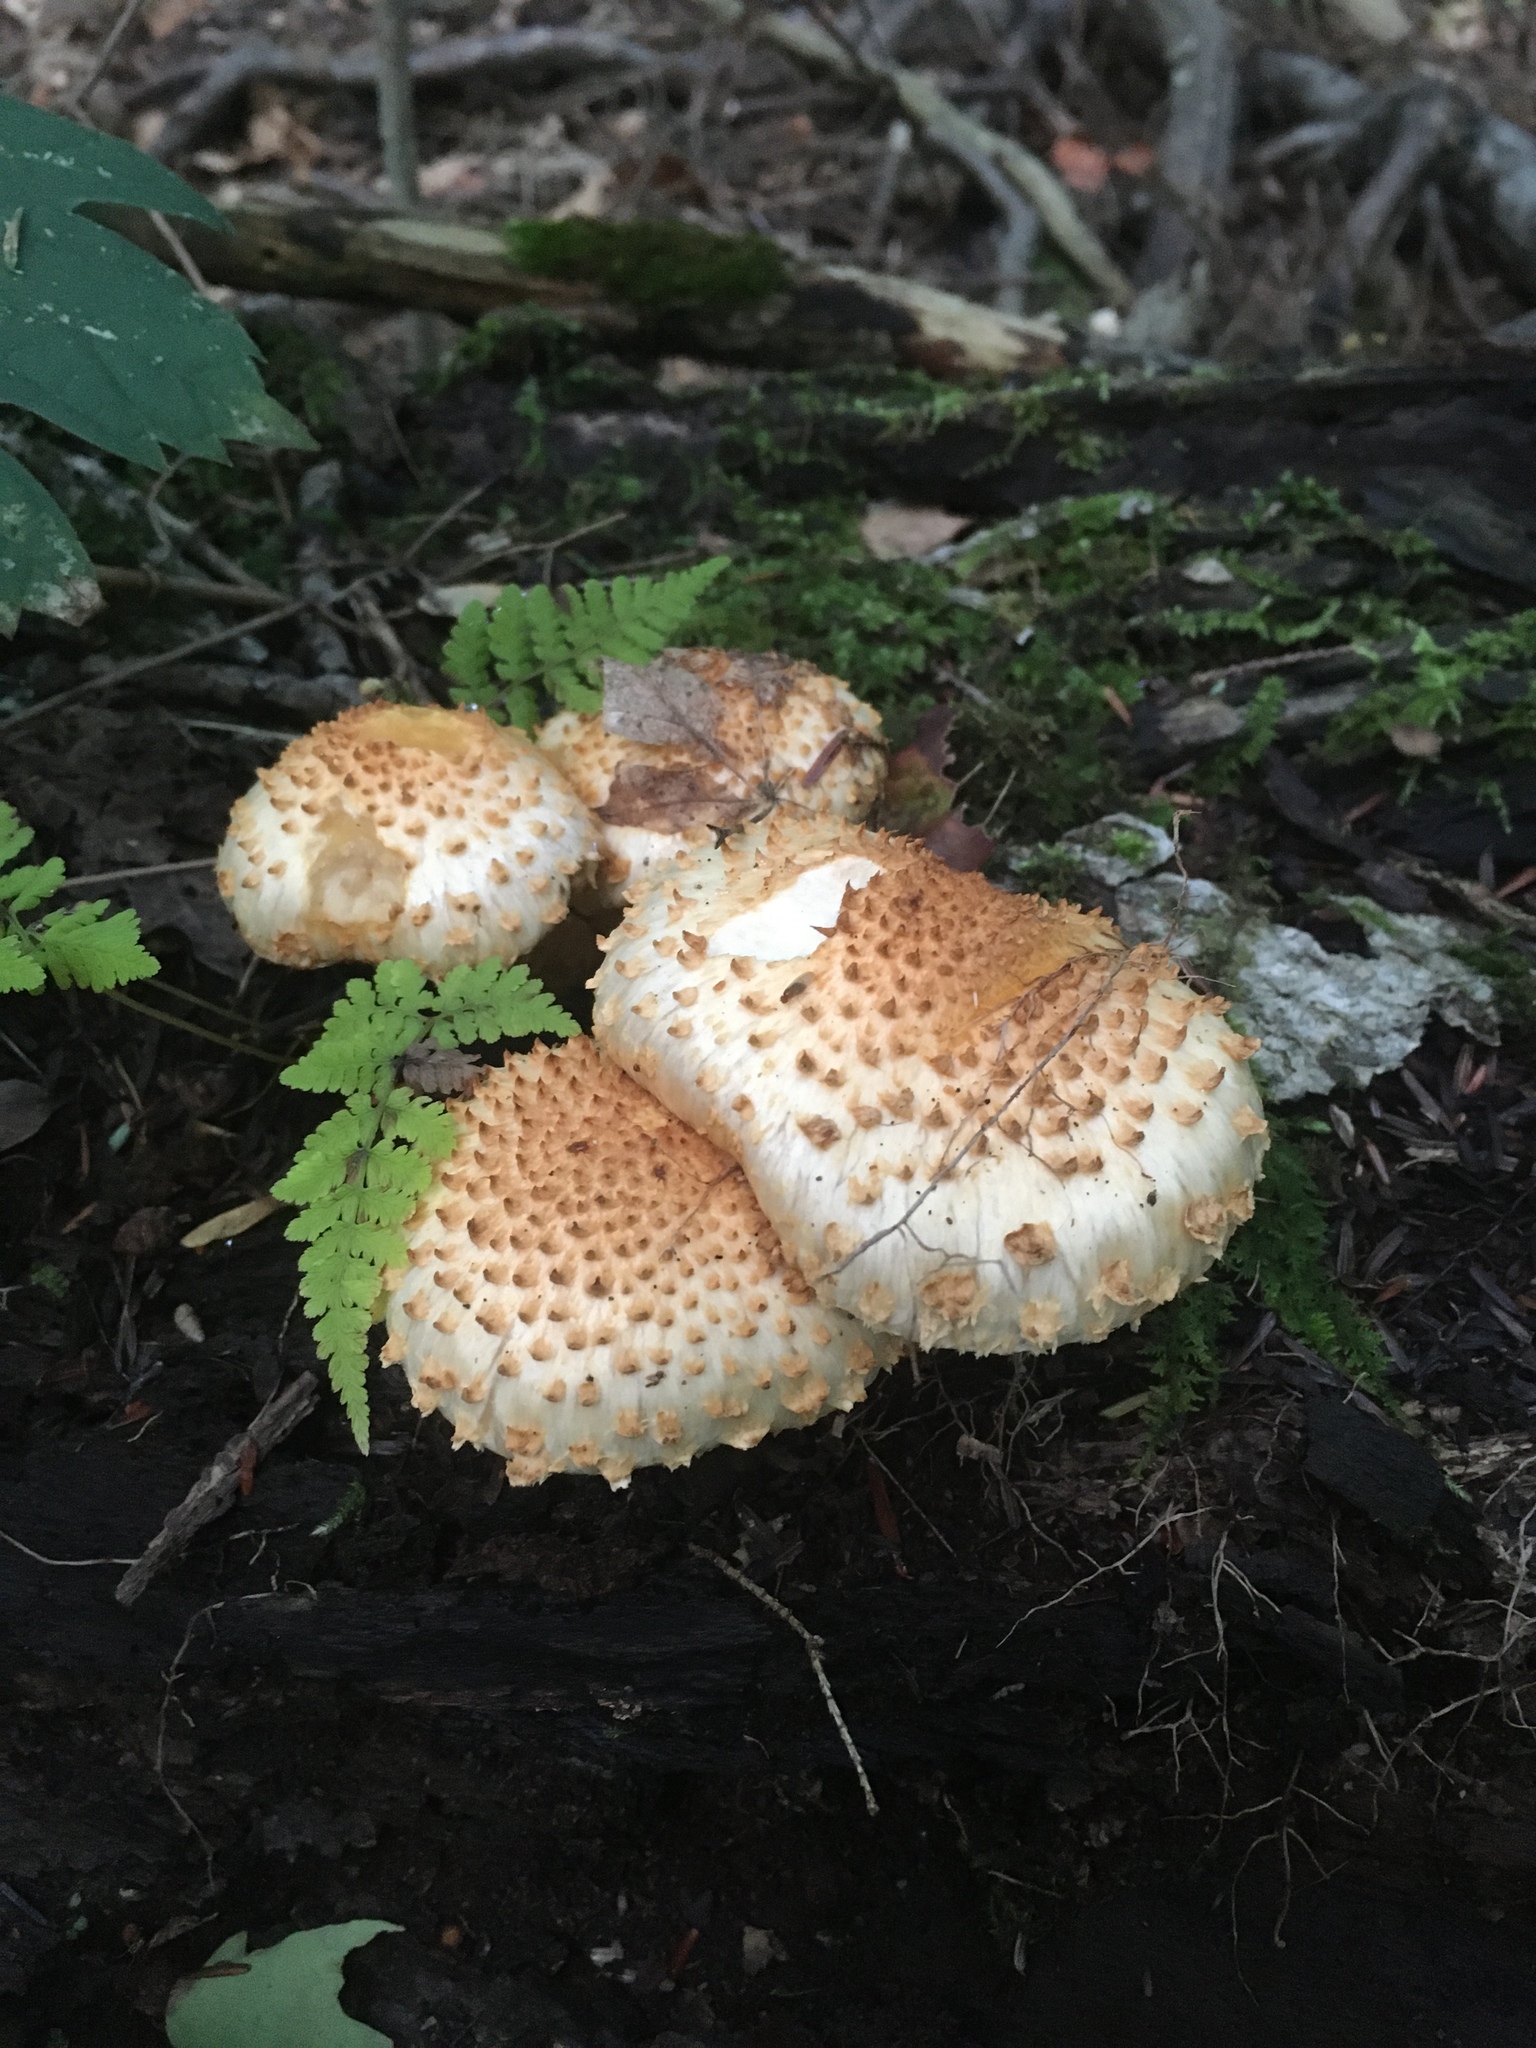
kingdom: Fungi
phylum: Basidiomycota
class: Agaricomycetes
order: Agaricales
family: Strophariaceae
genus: Pholiota
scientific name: Pholiota squarrosoides
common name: Sharp-scaly pholiota
